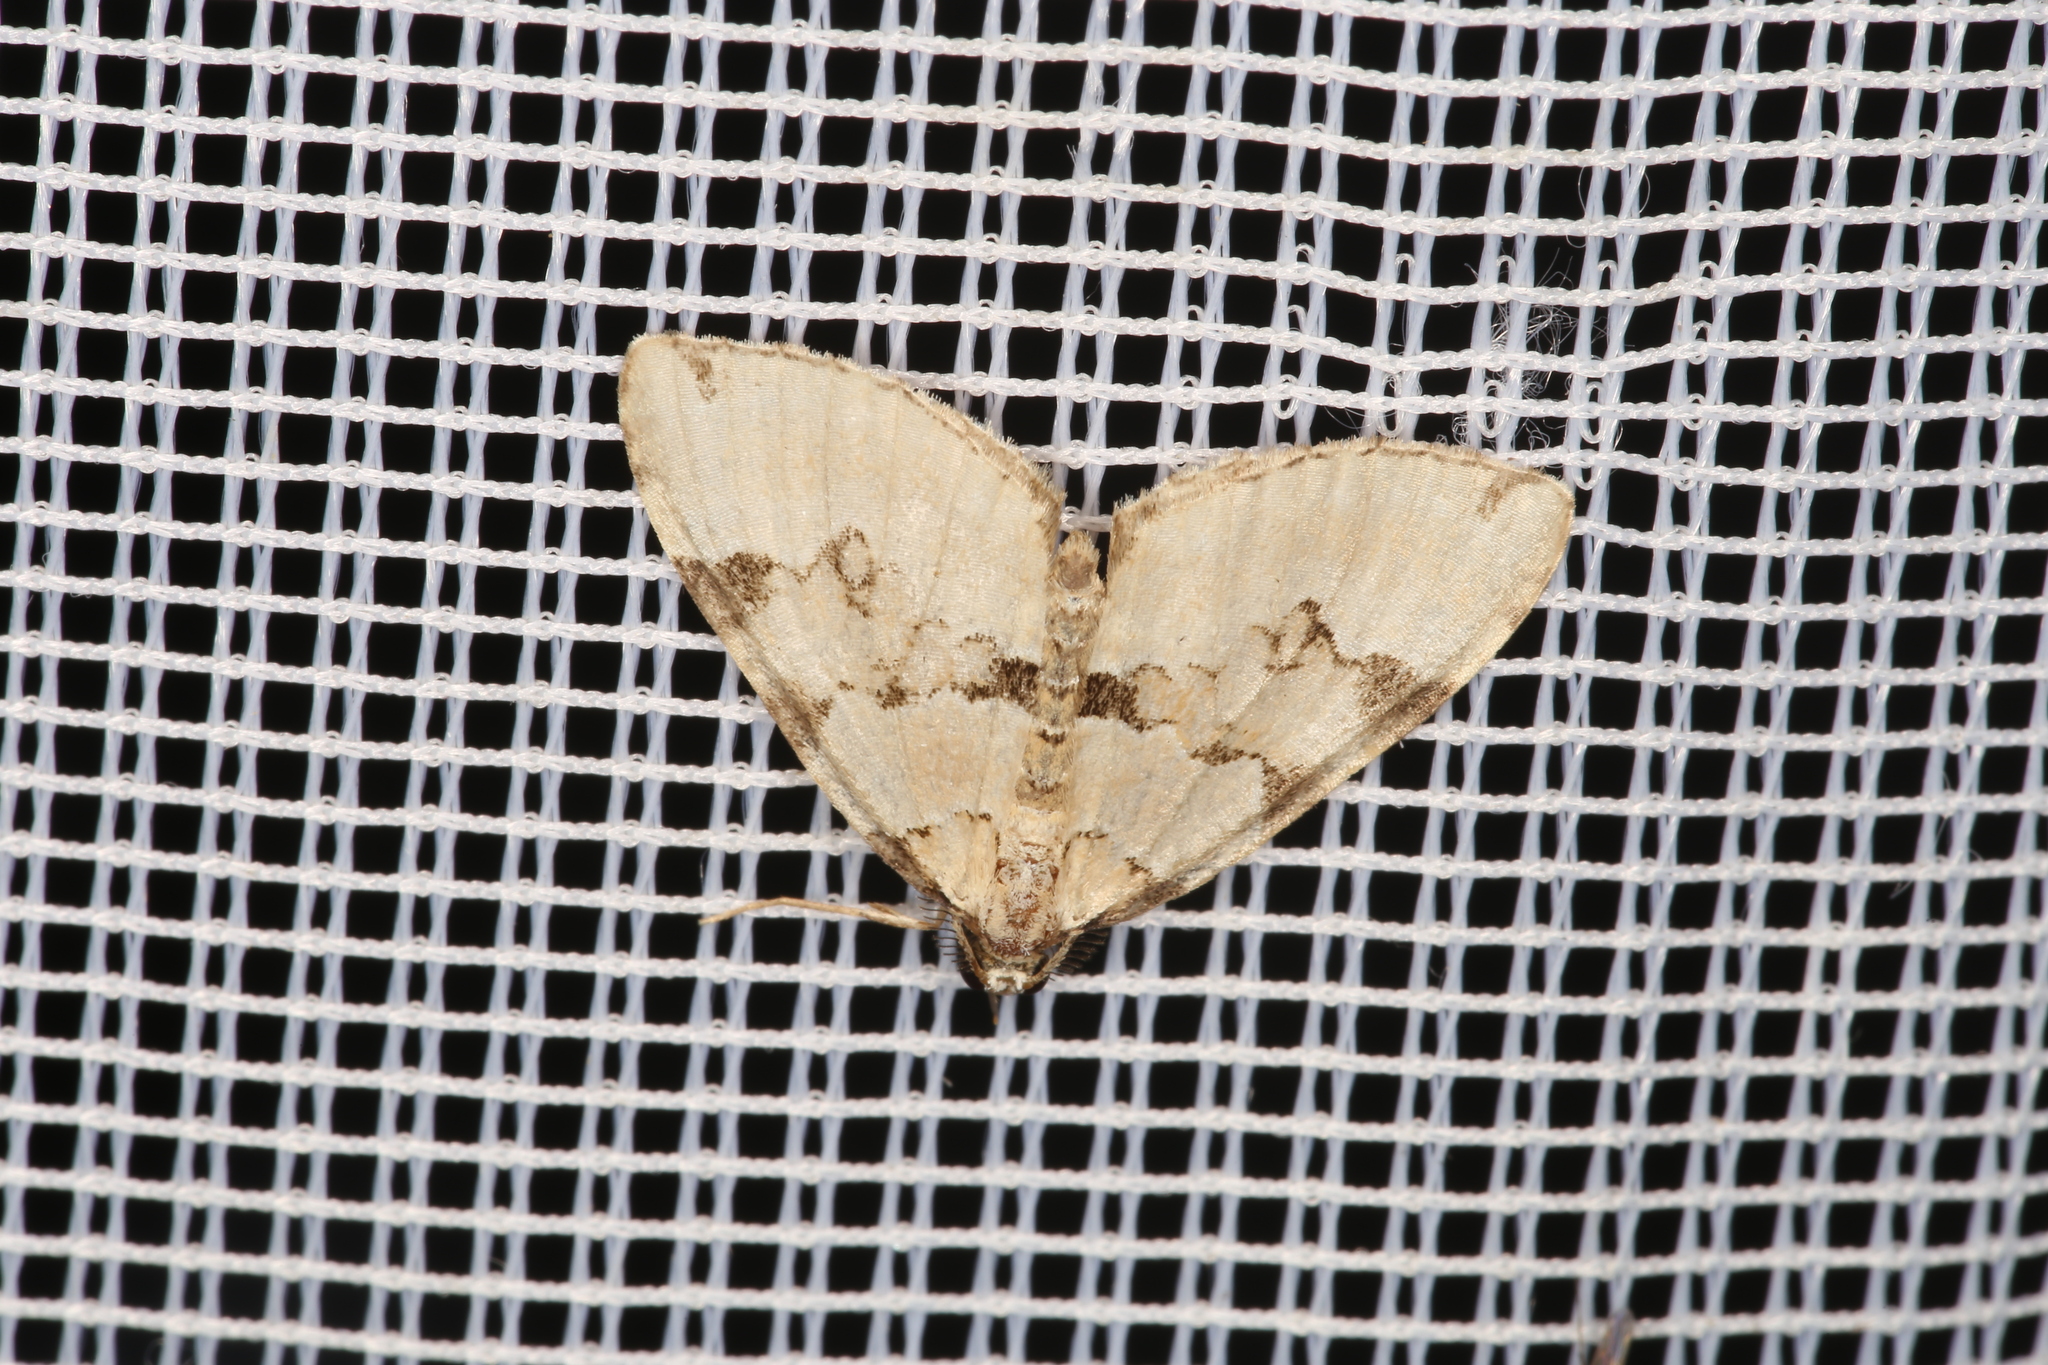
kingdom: Animalia
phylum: Arthropoda
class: Insecta
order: Lepidoptera
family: Geometridae
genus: Colostygia
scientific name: Colostygia pectinataria
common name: Green carpet
